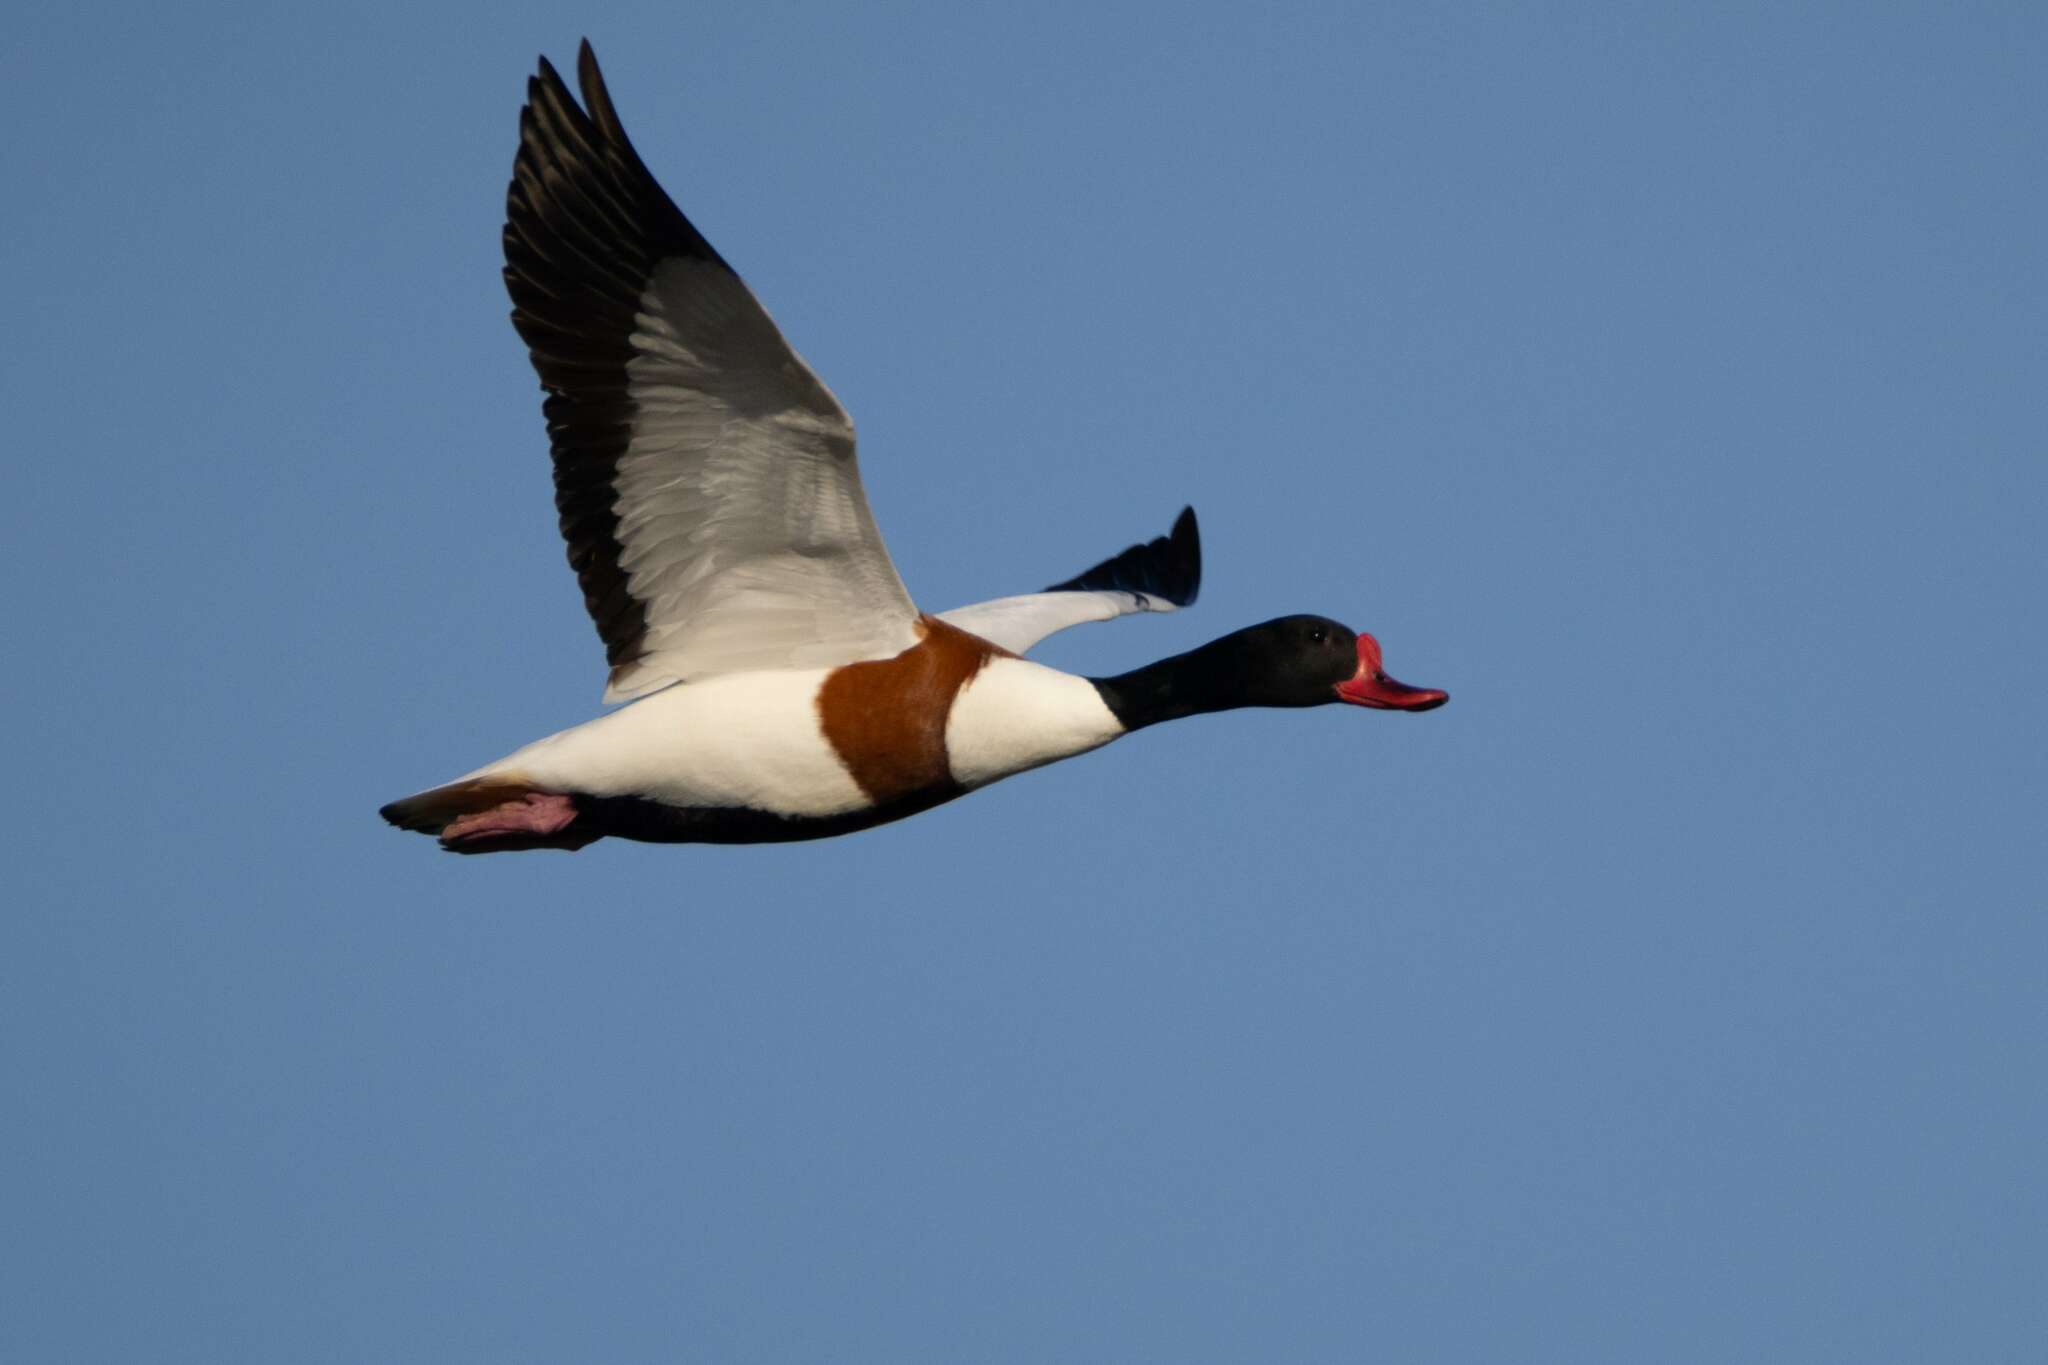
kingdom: Animalia
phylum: Chordata
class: Aves
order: Anseriformes
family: Anatidae
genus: Tadorna
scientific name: Tadorna tadorna
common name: Common shelduck
